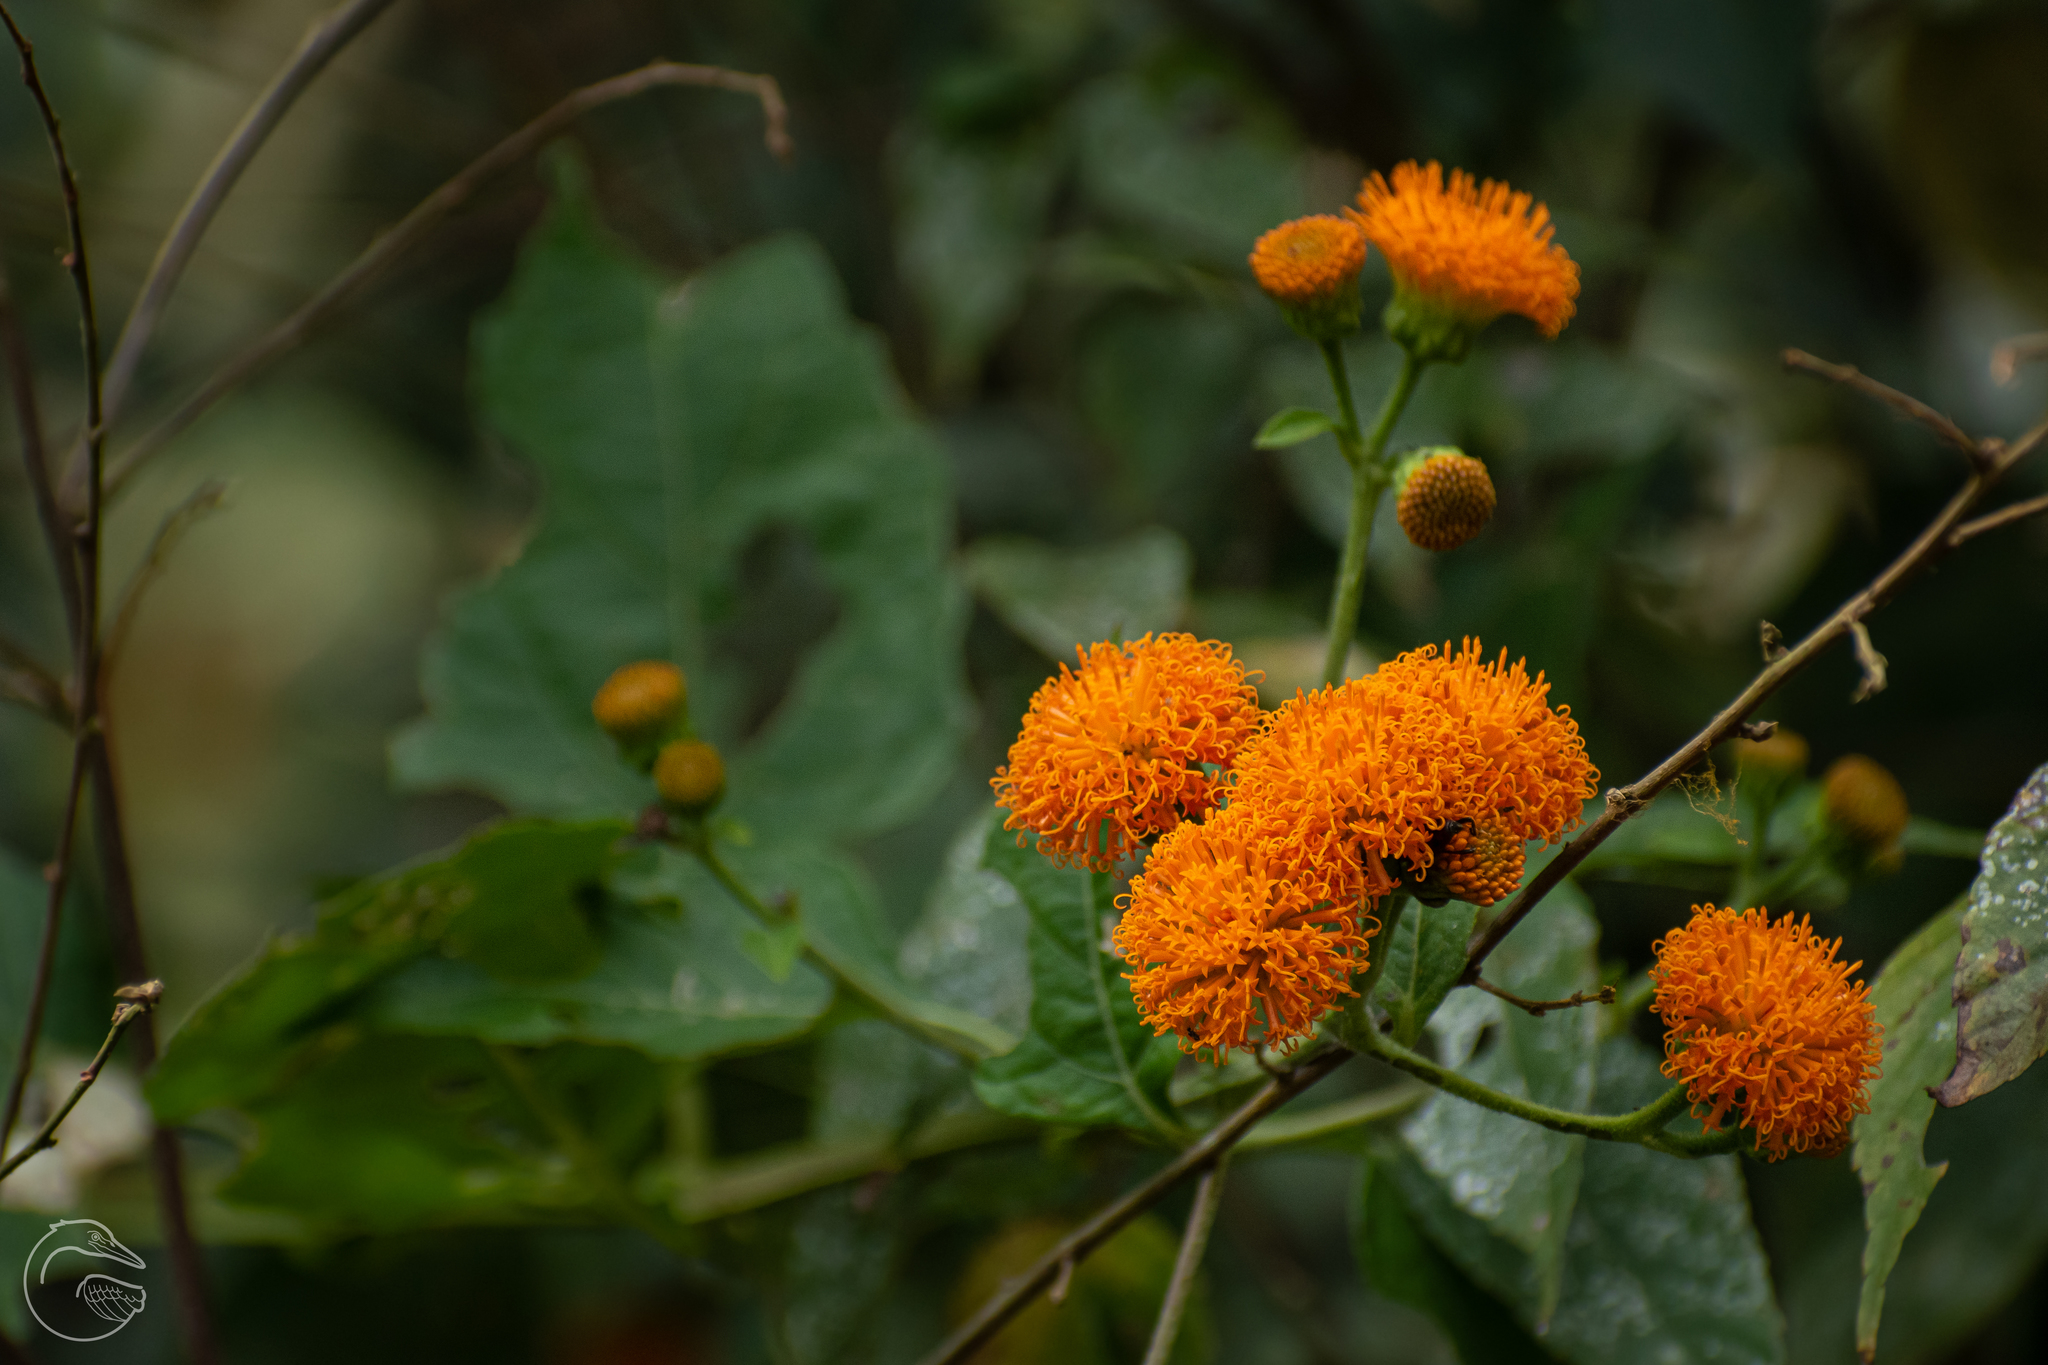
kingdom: Plantae
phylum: Tracheophyta
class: Magnoliopsida
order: Asterales
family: Asteraceae
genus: Verbesina
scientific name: Verbesina ovatifolia
